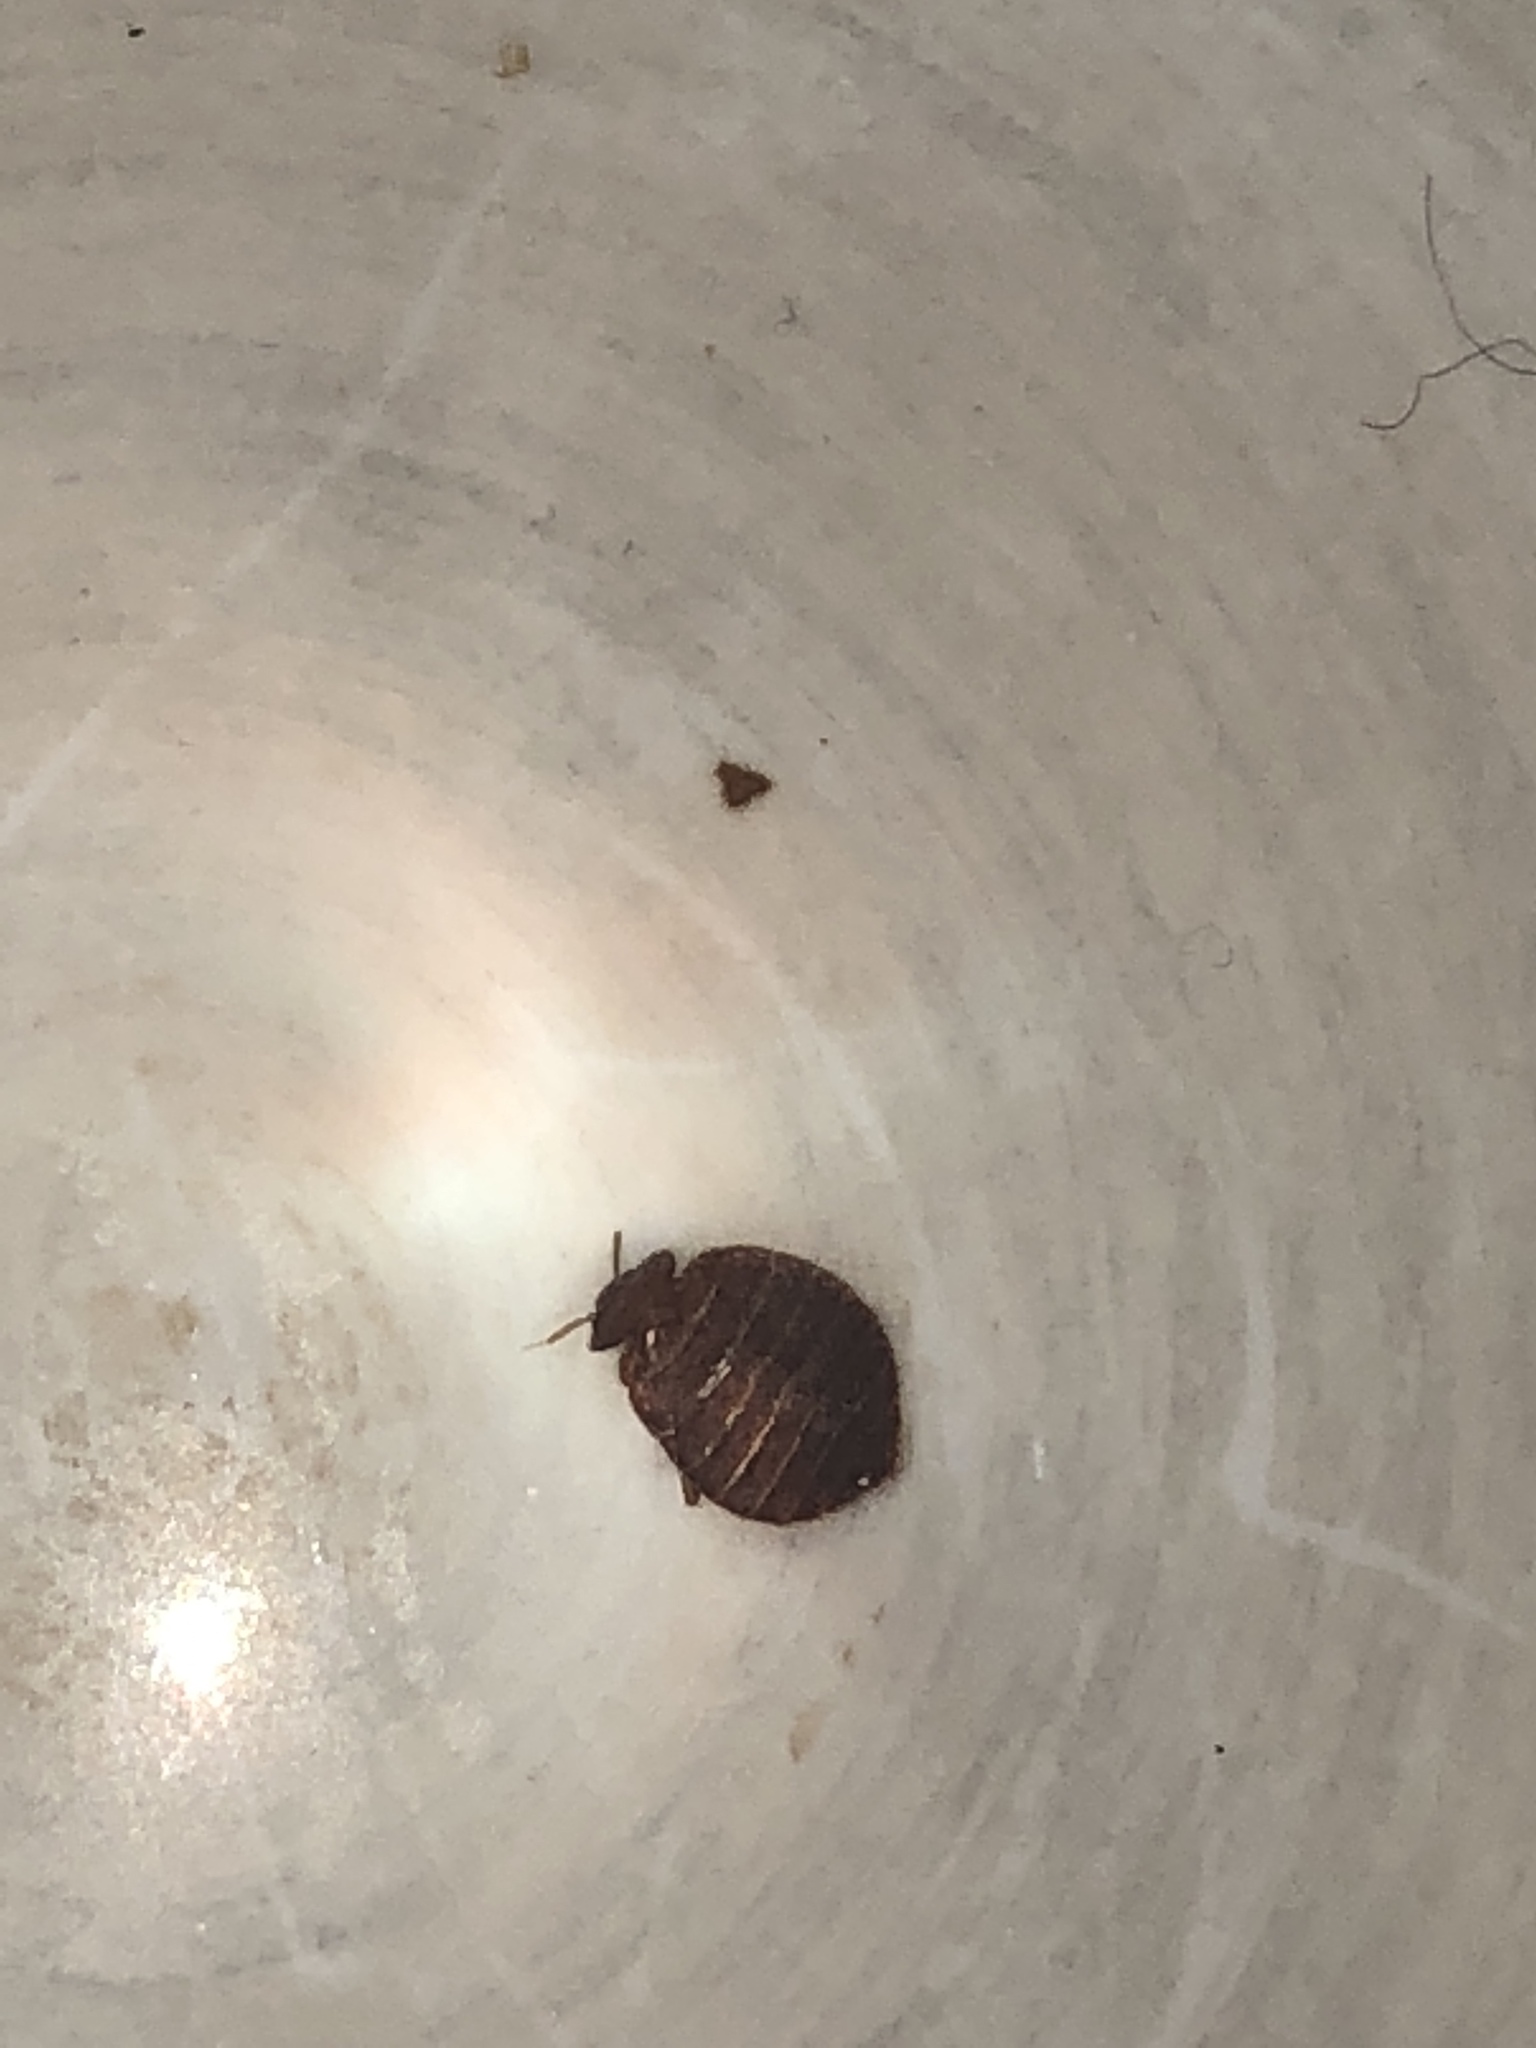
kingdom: Animalia
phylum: Arthropoda
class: Insecta
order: Hemiptera
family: Cimicidae
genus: Cimex
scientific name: Cimex lectularius
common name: Bed bug
